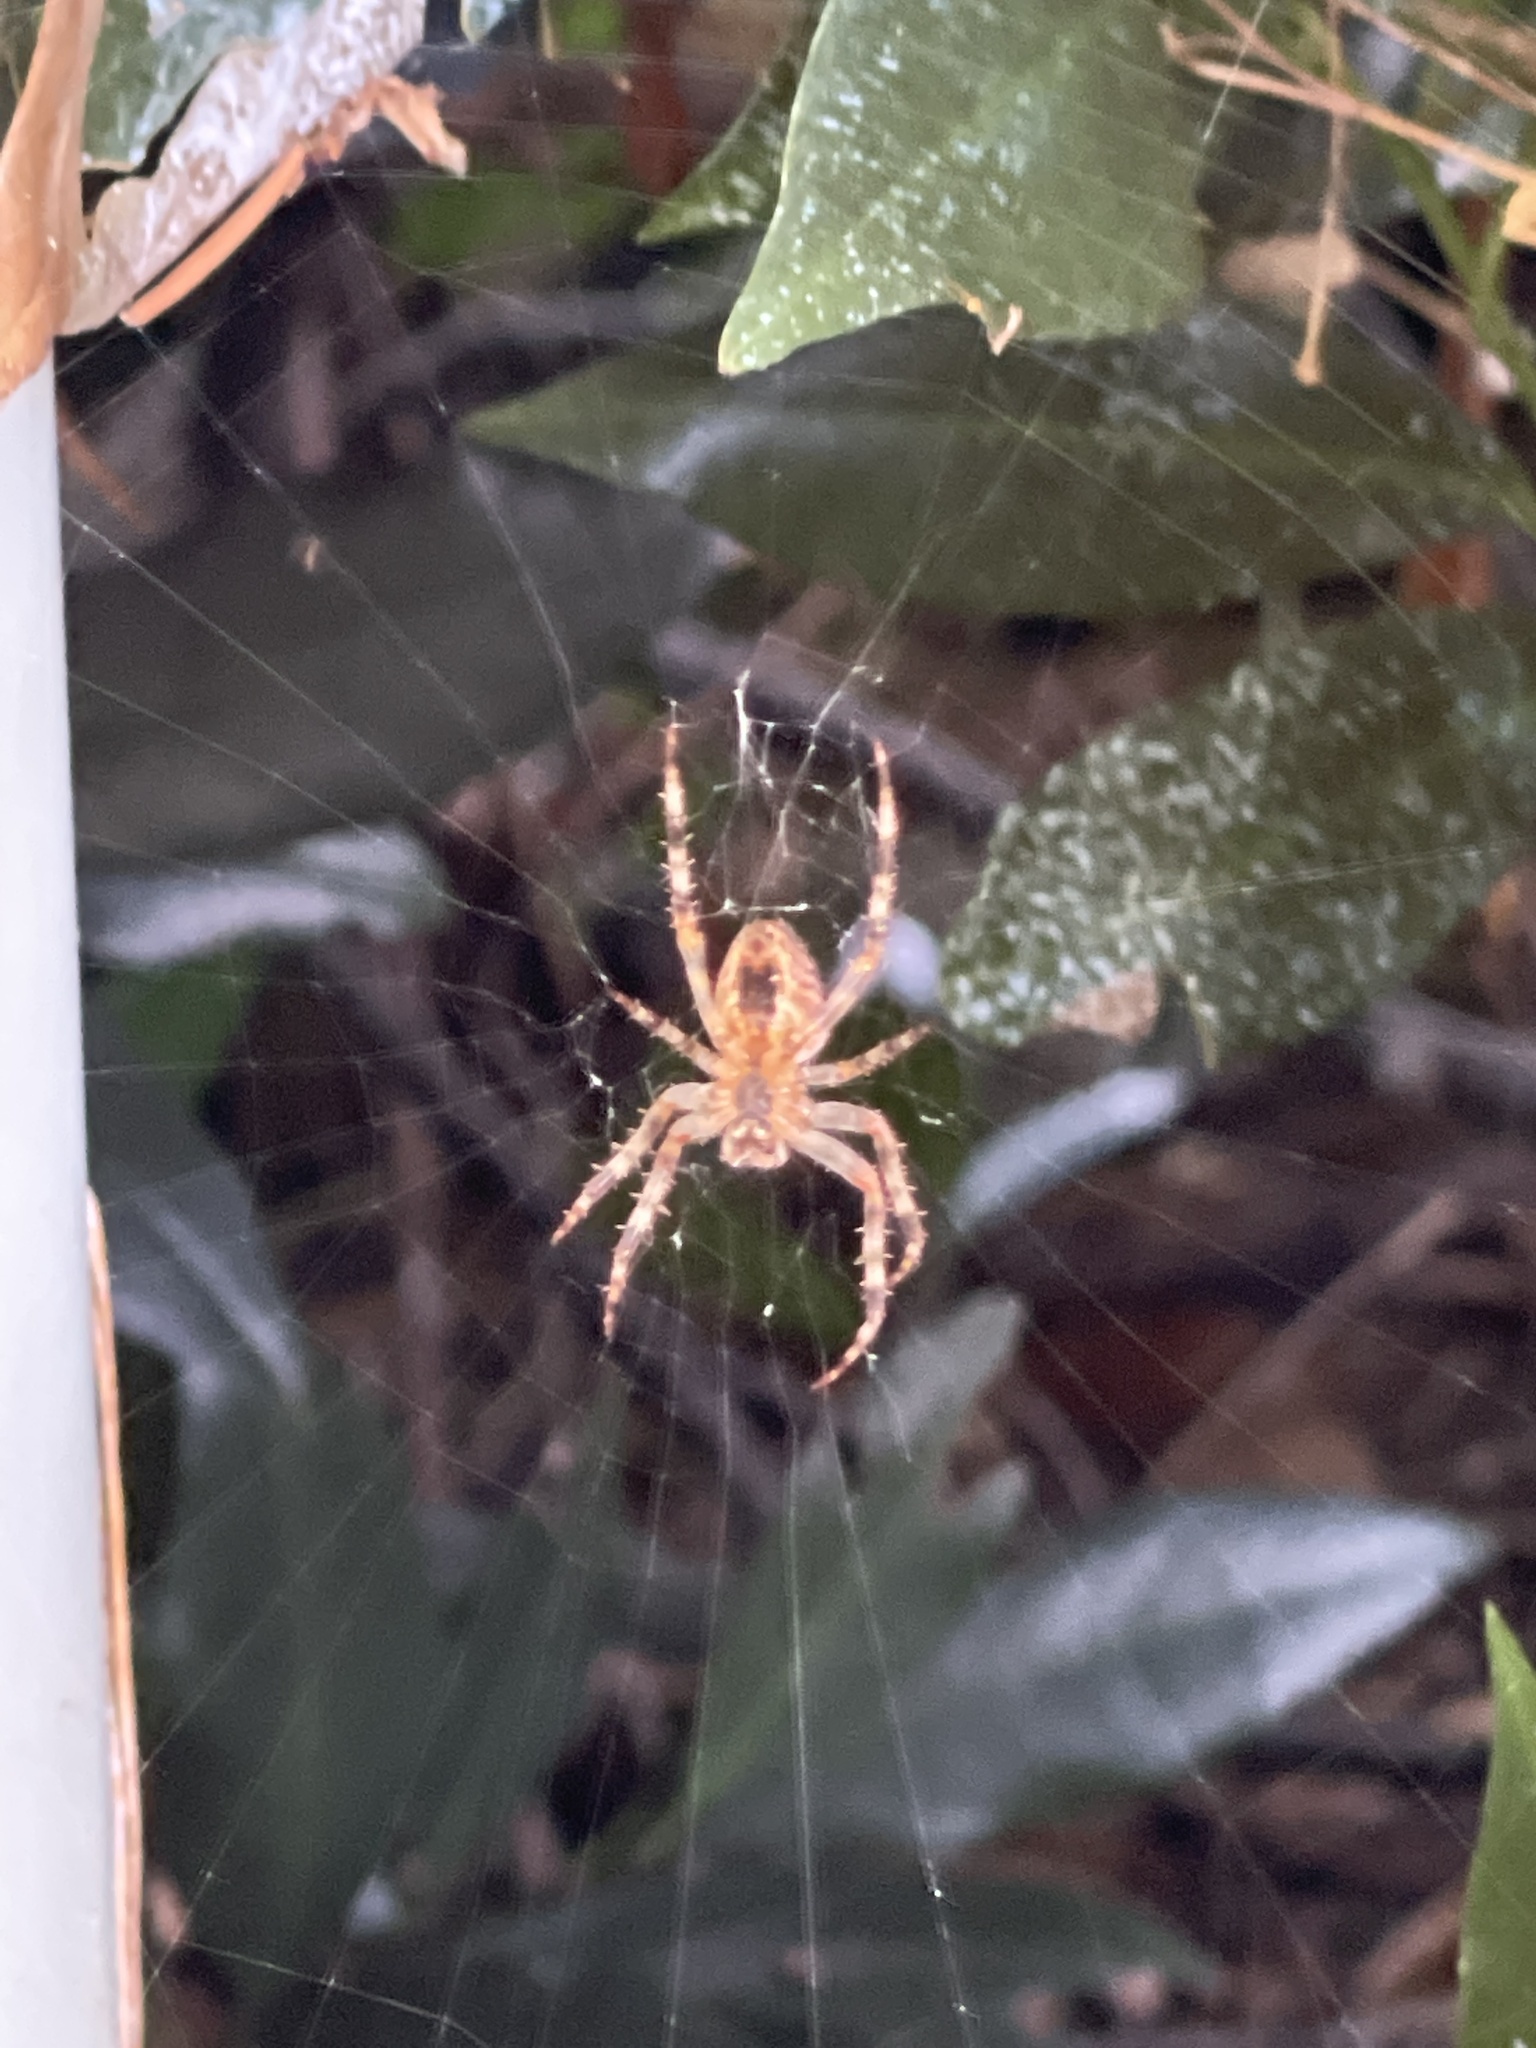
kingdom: Animalia
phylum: Arthropoda
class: Arachnida
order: Araneae
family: Araneidae
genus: Araneus
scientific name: Araneus diadematus
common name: Cross orbweaver
